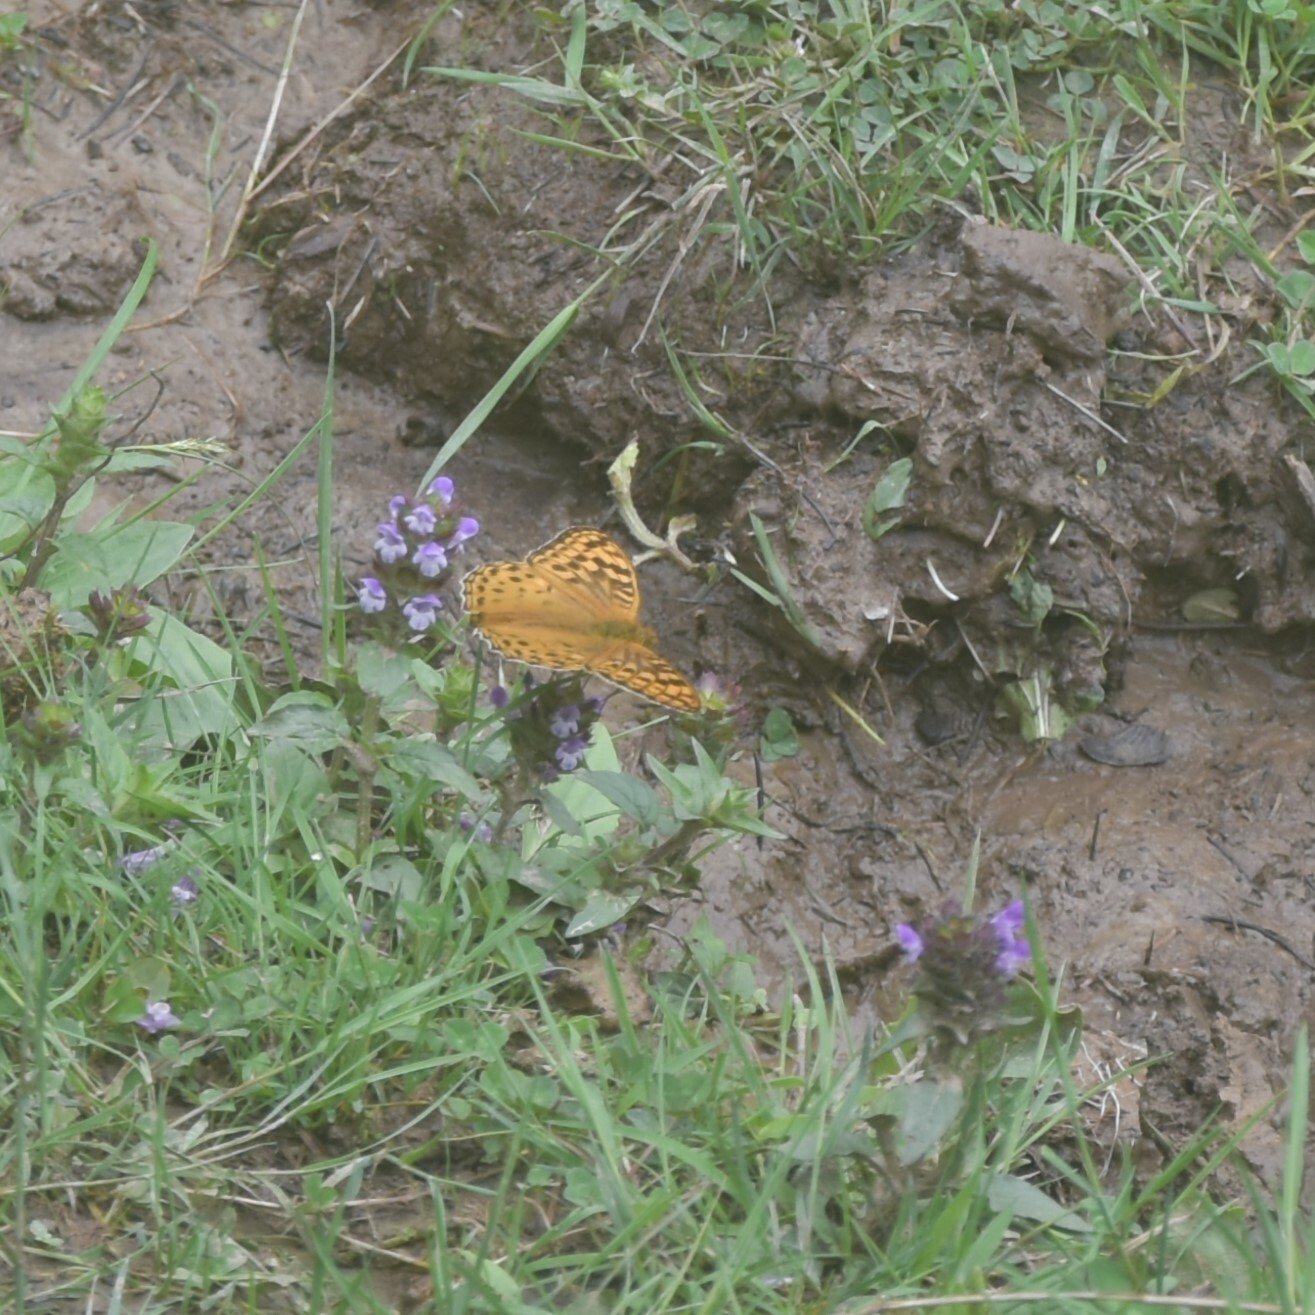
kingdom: Animalia
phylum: Arthropoda
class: Insecta
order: Lepidoptera
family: Nymphalidae
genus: Fabriciana
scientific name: Fabriciana kamala
